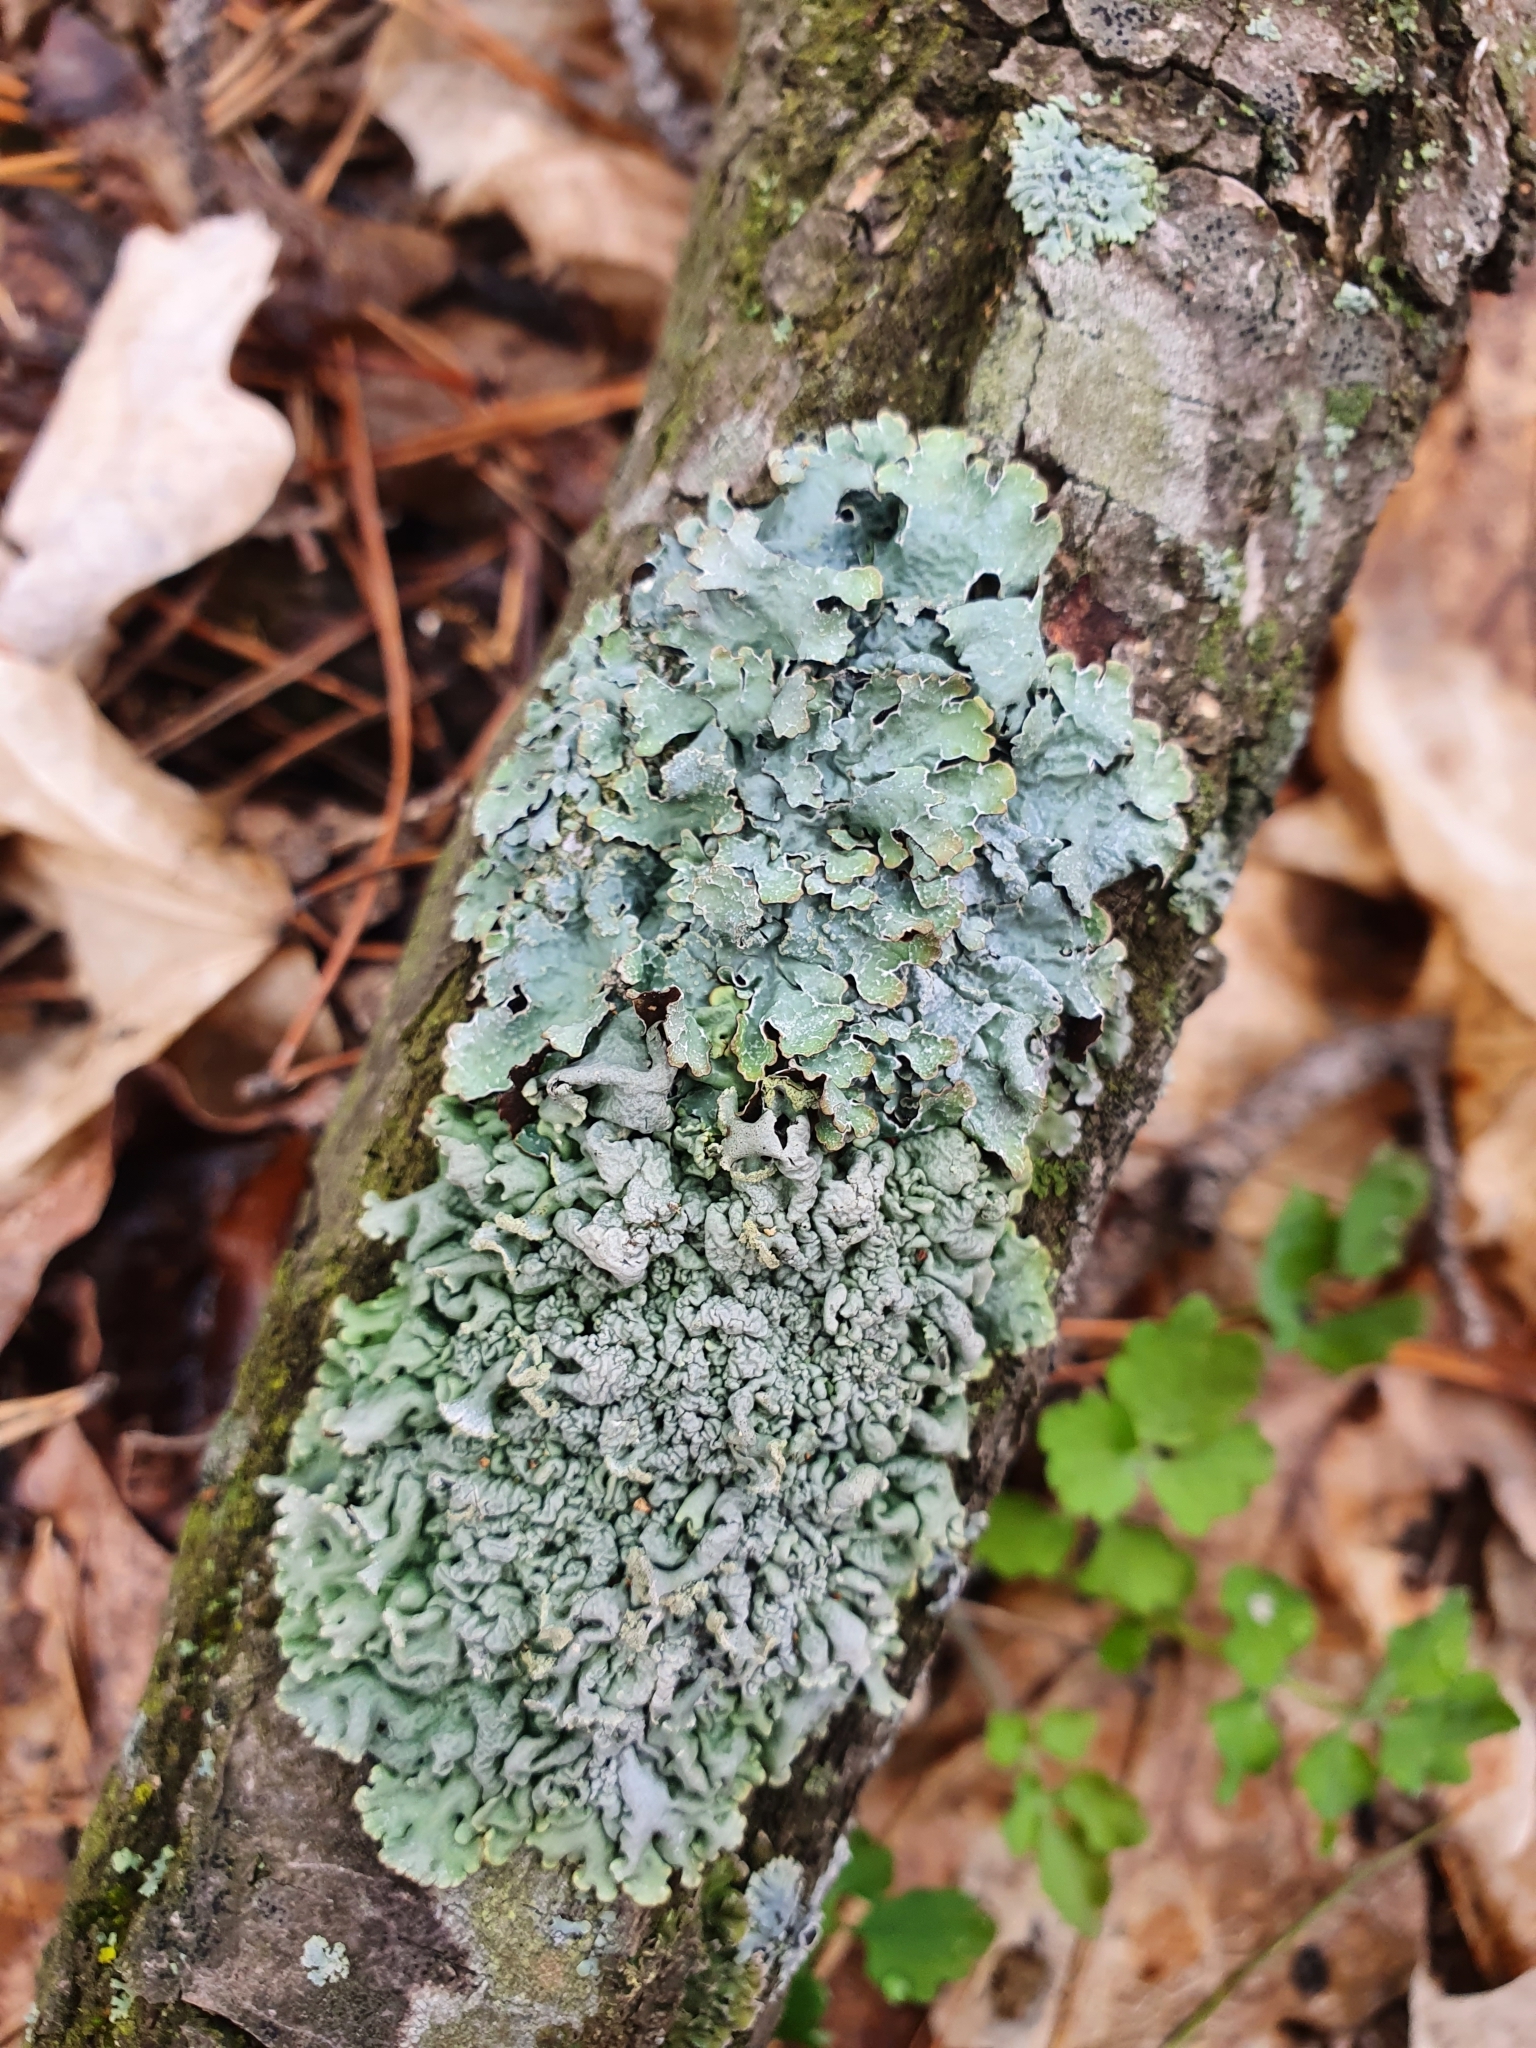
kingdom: Fungi
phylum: Ascomycota
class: Lecanoromycetes
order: Lecanorales
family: Parmeliaceae
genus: Parmelia
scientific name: Parmelia sulcata
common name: Netted shield lichen
